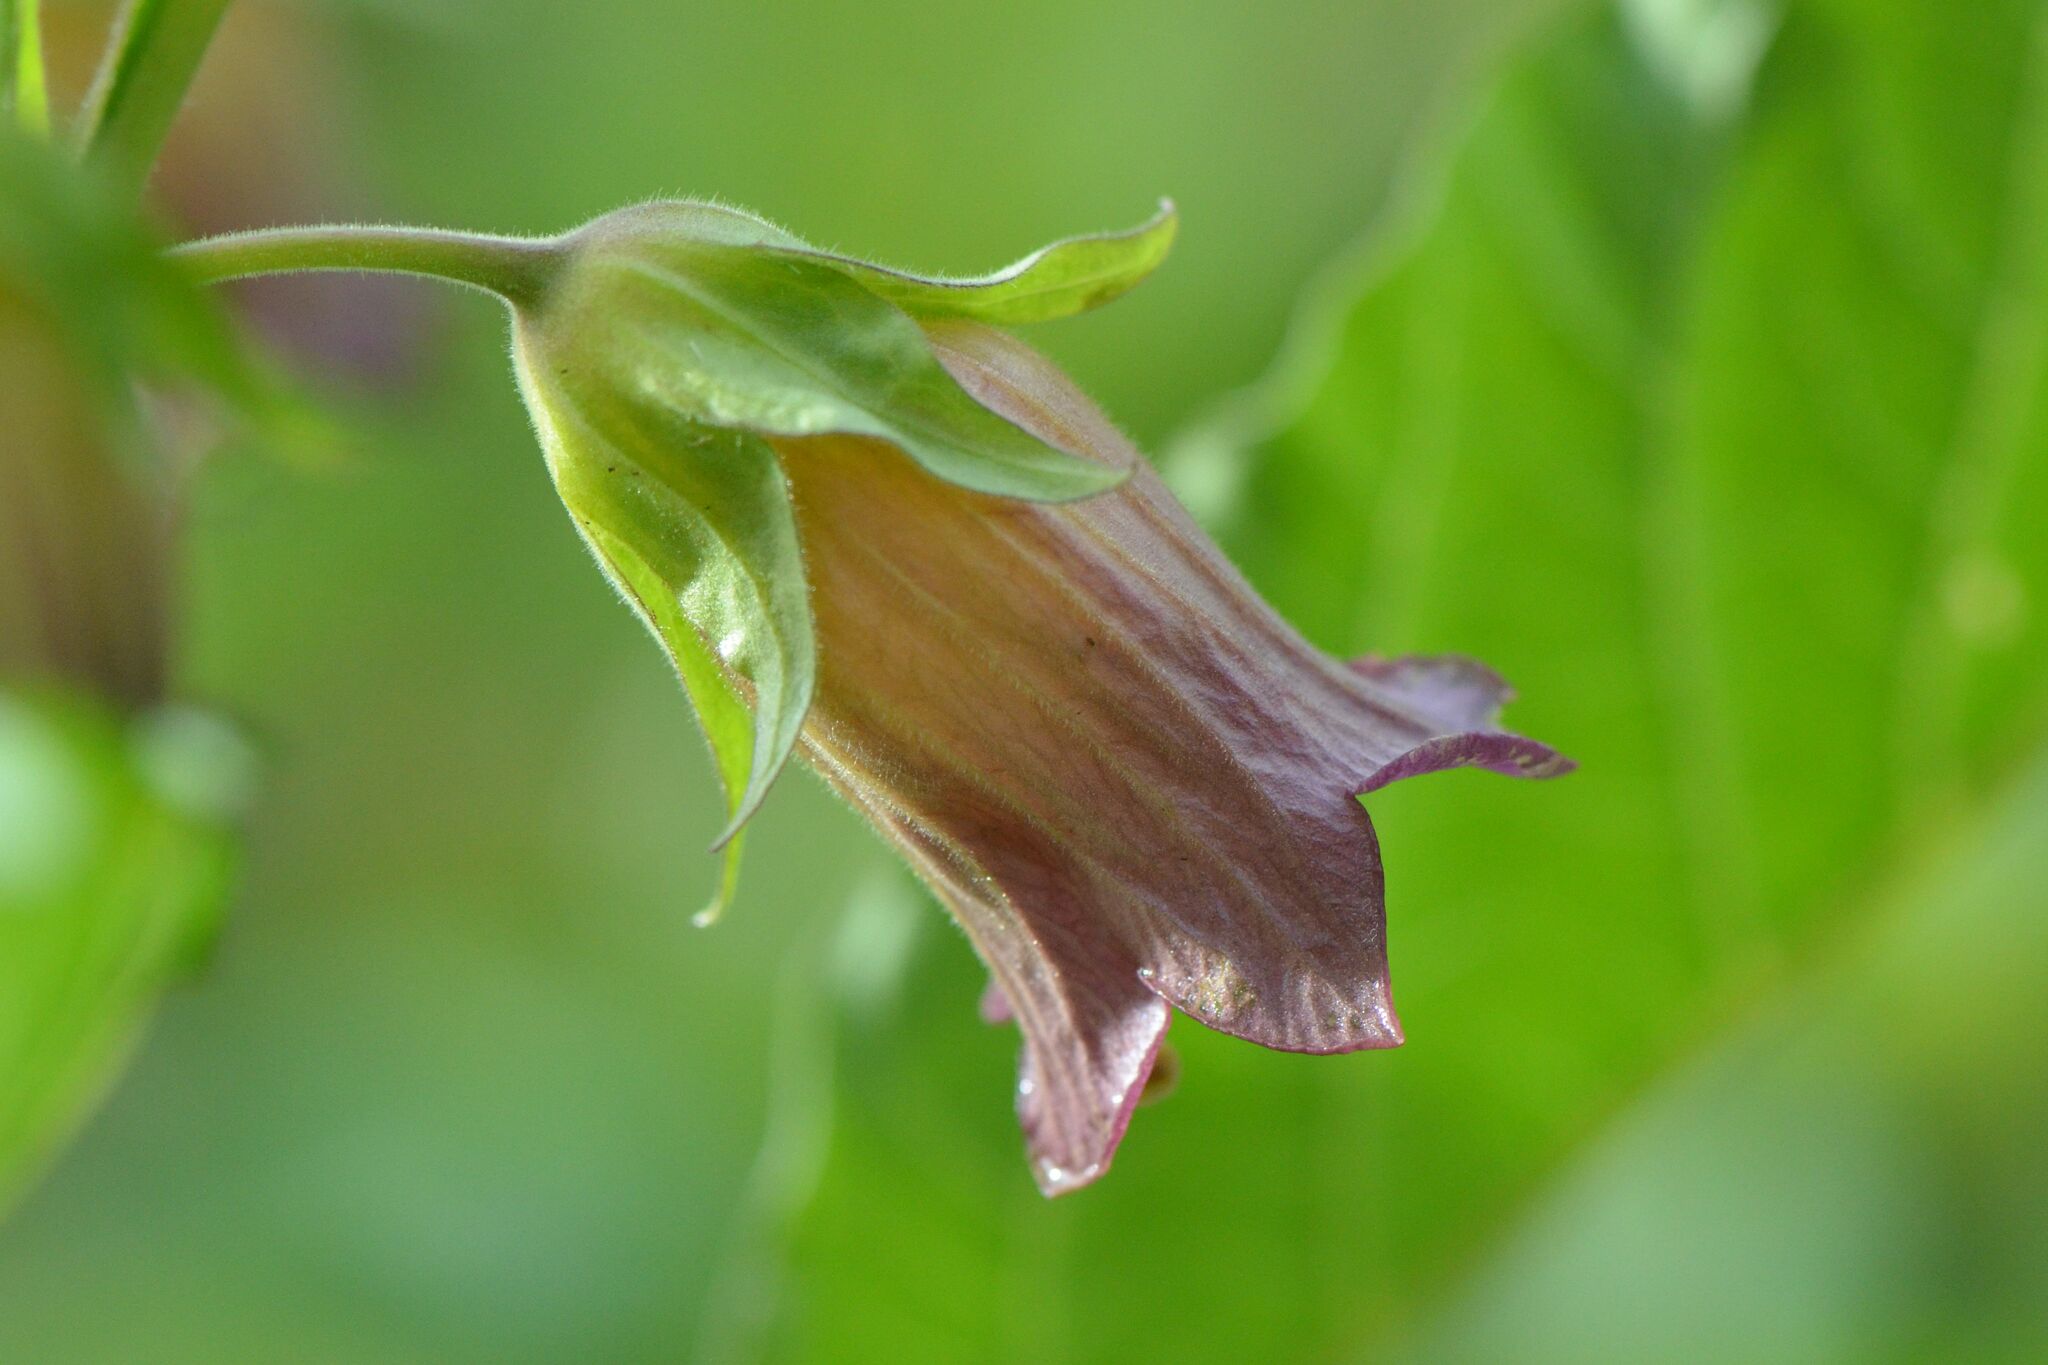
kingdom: Plantae
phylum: Tracheophyta
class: Magnoliopsida
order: Solanales
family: Solanaceae
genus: Atropa
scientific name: Atropa belladonna
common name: Deadly nightshade
